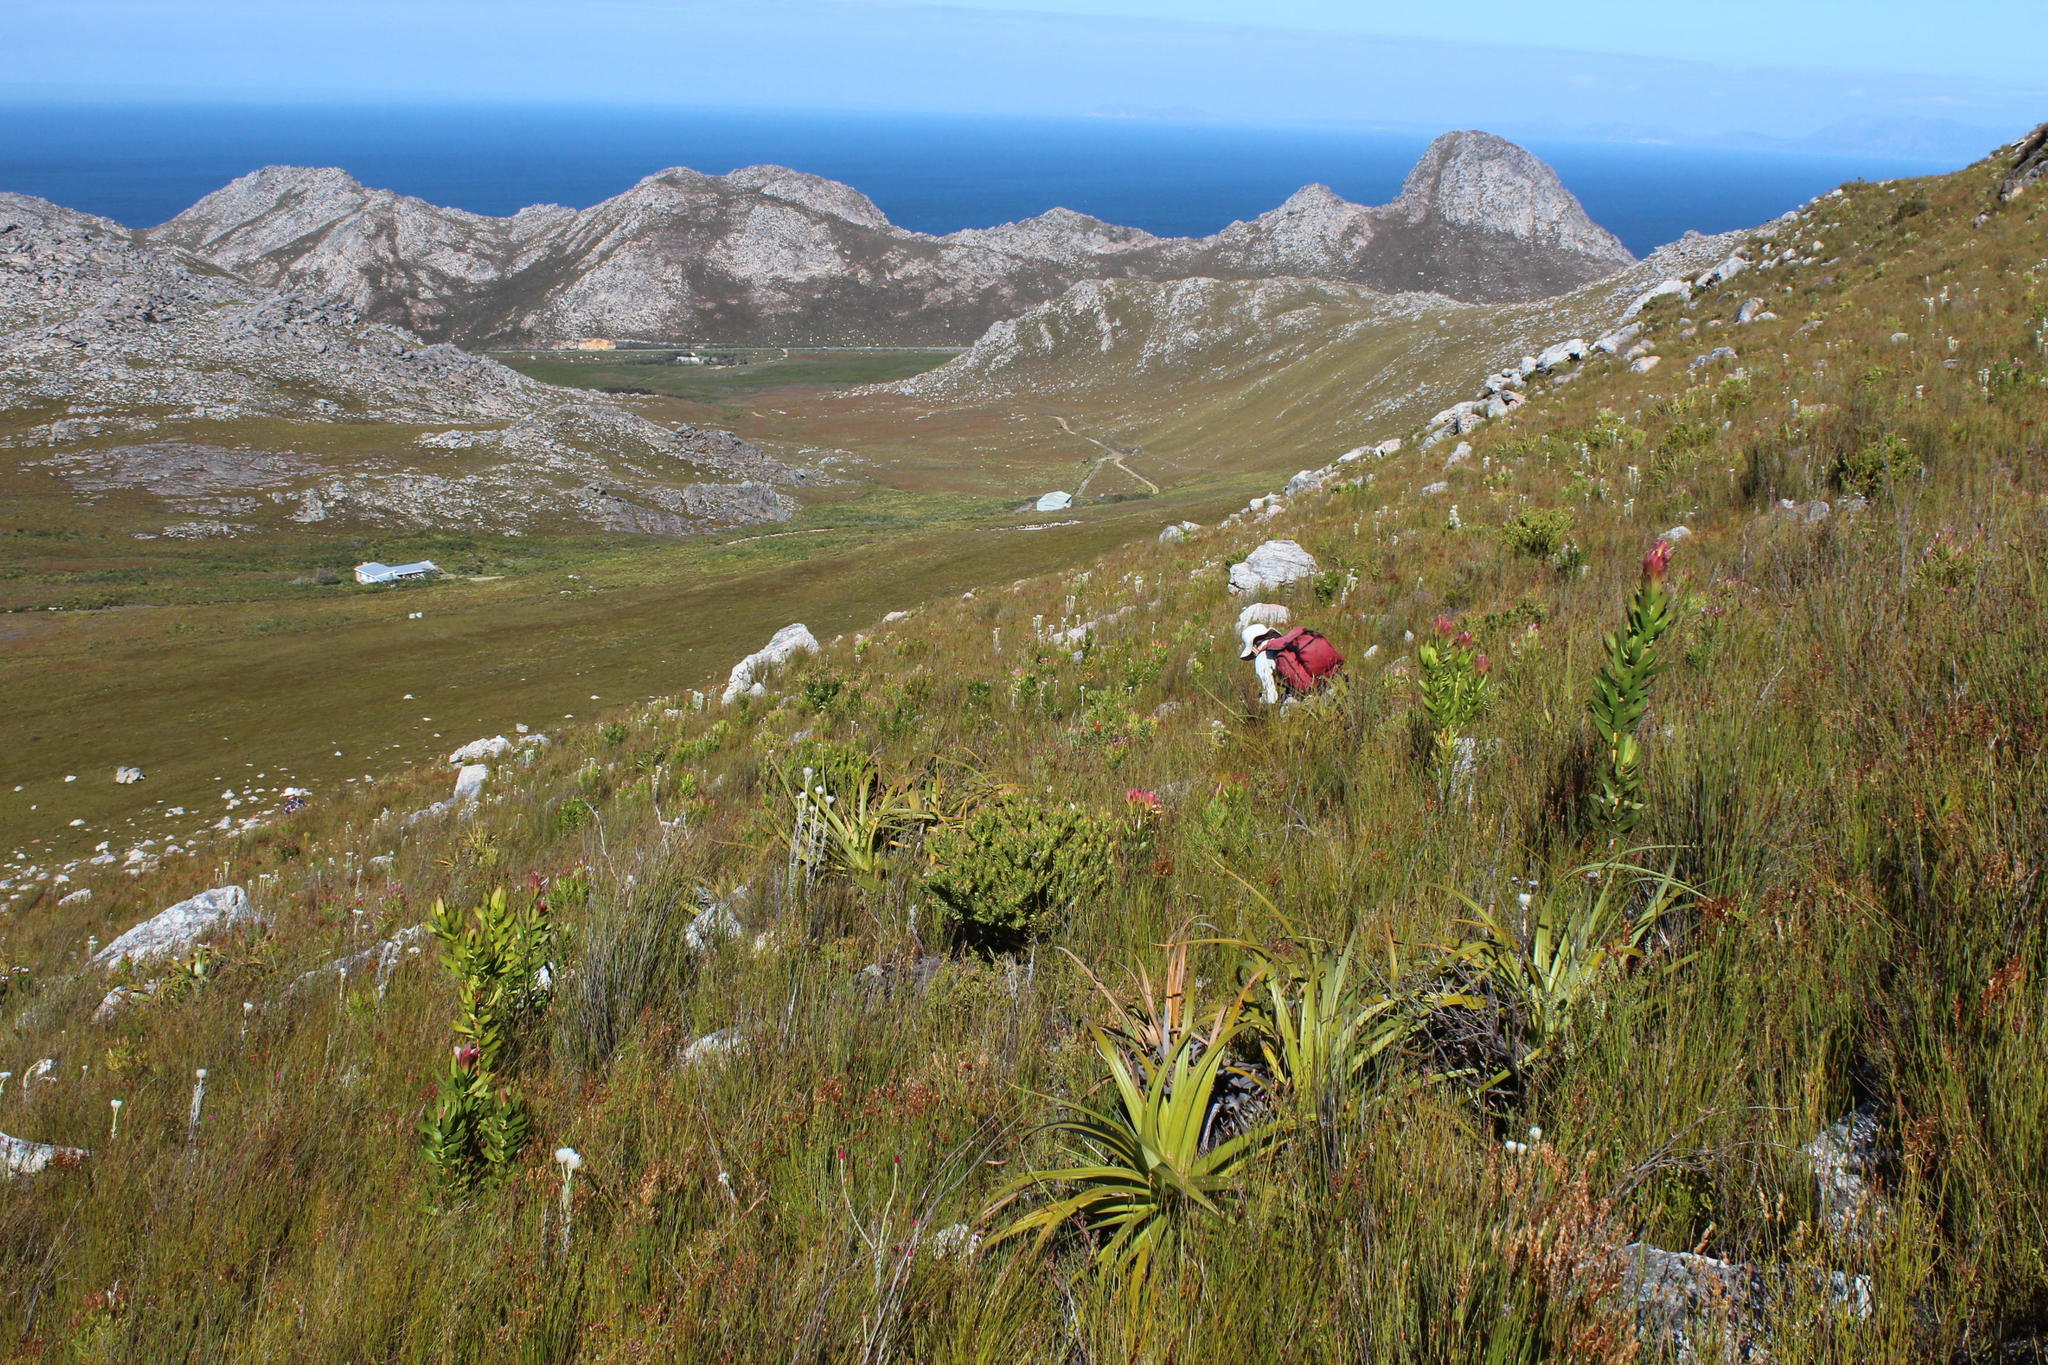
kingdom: Plantae
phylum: Tracheophyta
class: Liliopsida
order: Poales
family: Cyperaceae
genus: Tetraria
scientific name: Tetraria thermalis
